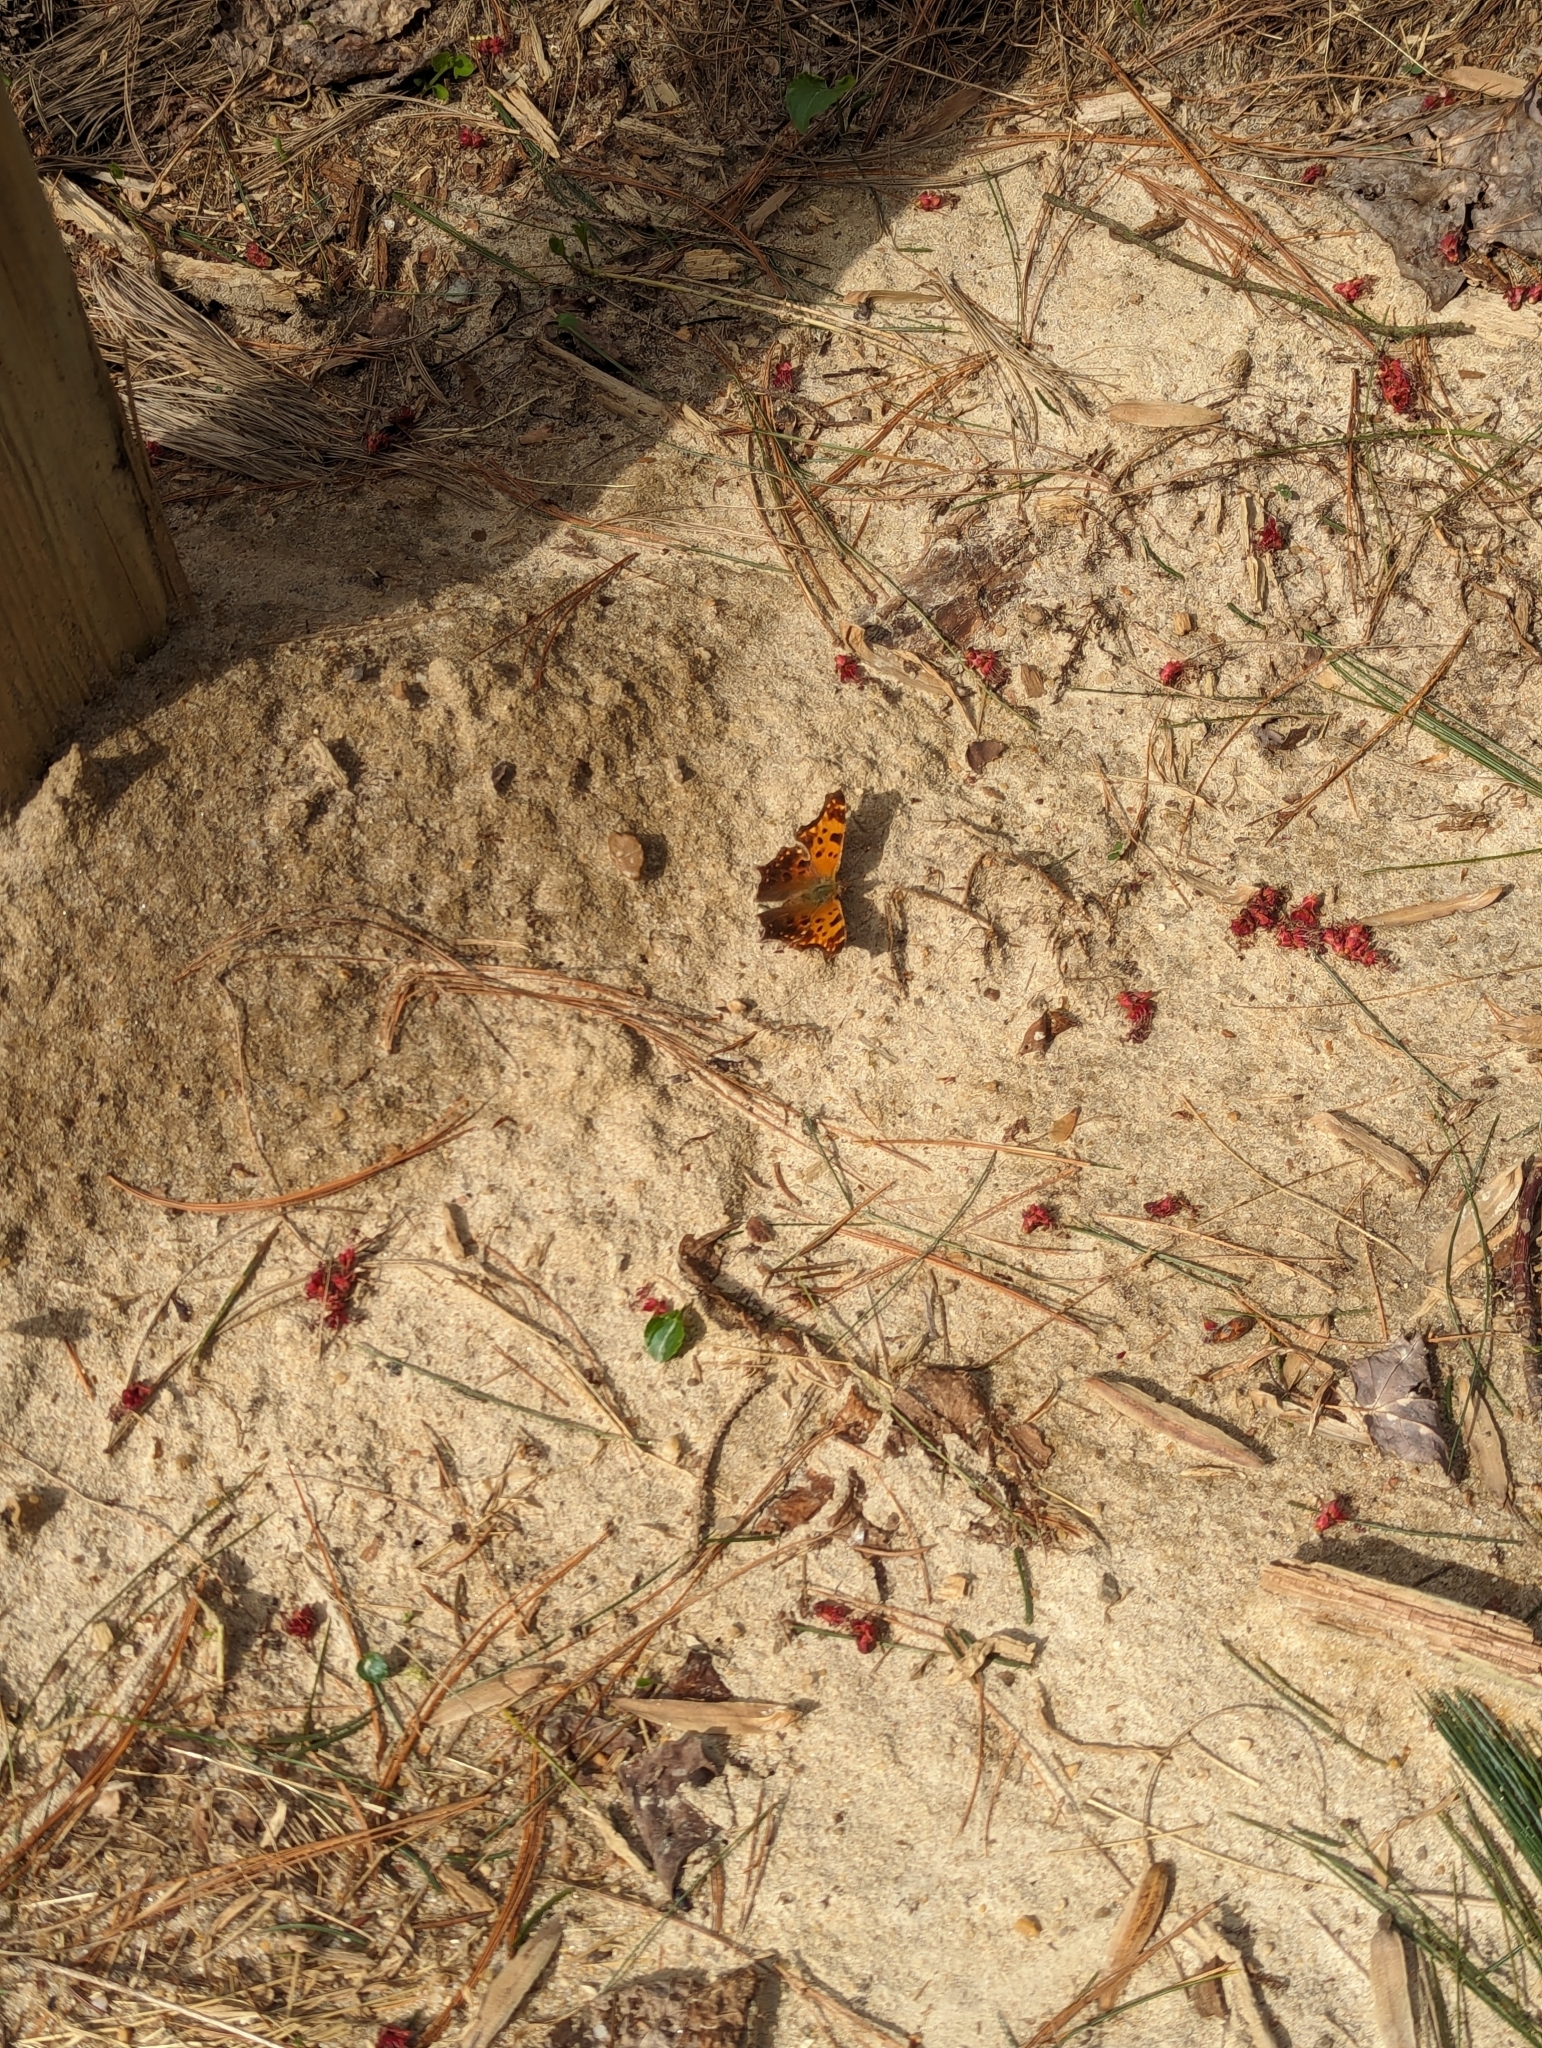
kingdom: Animalia
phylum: Arthropoda
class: Insecta
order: Lepidoptera
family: Nymphalidae
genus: Polygonia
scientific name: Polygonia comma
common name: Eastern comma
